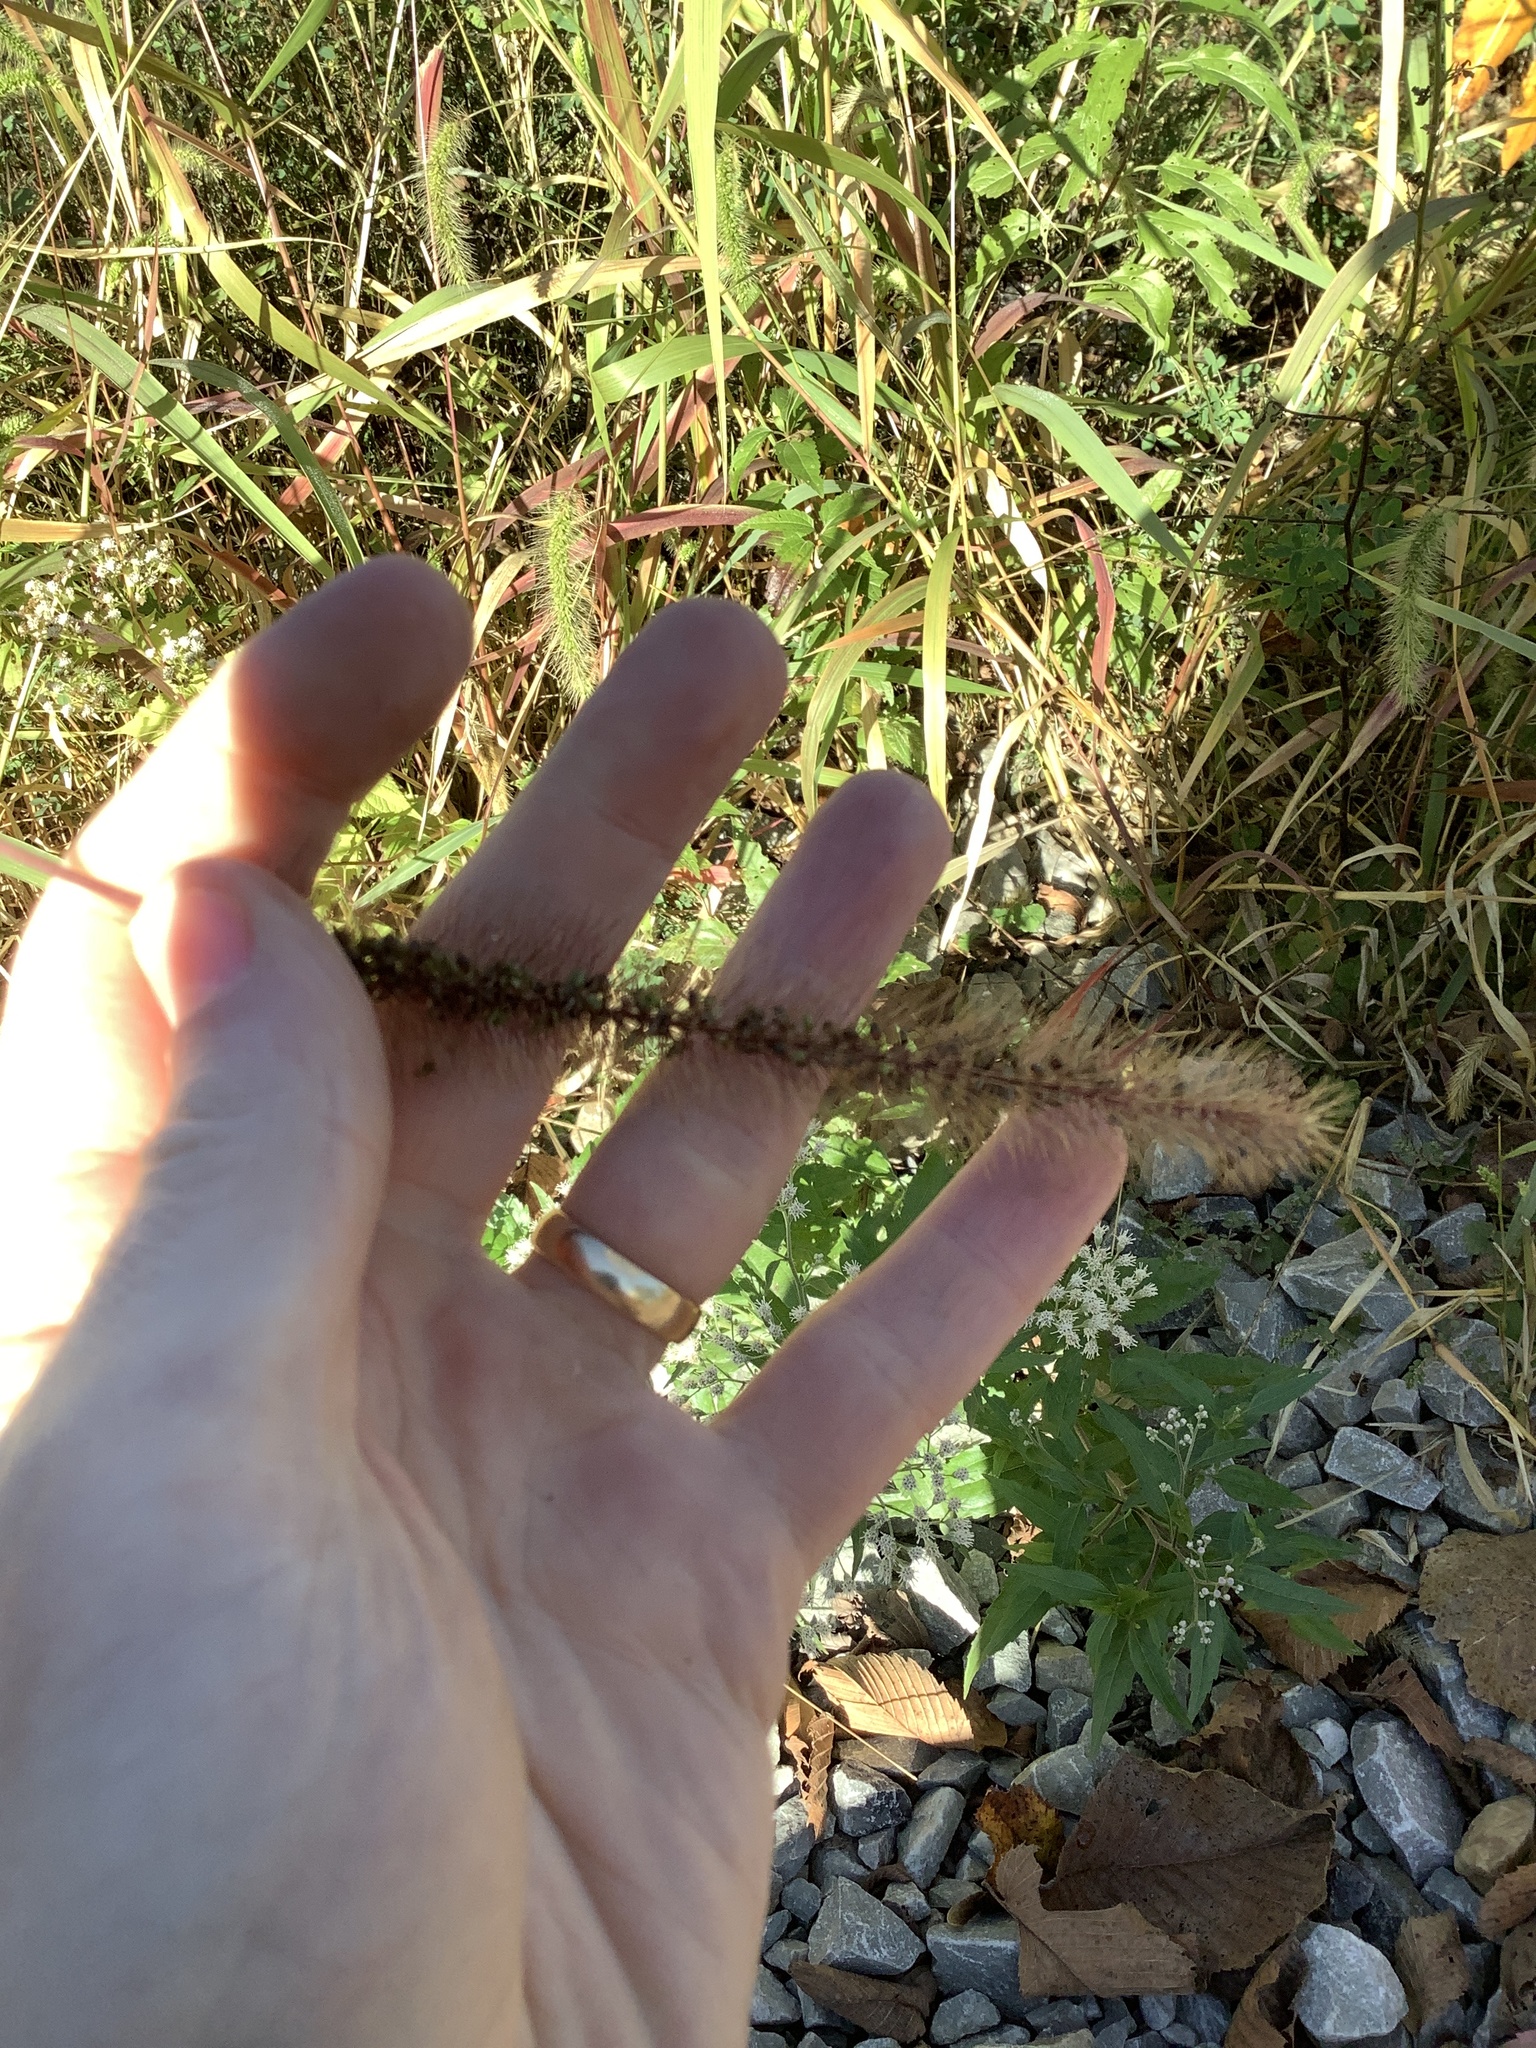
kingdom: Plantae
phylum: Tracheophyta
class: Liliopsida
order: Poales
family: Poaceae
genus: Setaria
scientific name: Setaria faberi
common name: Nodding bristle-grass
